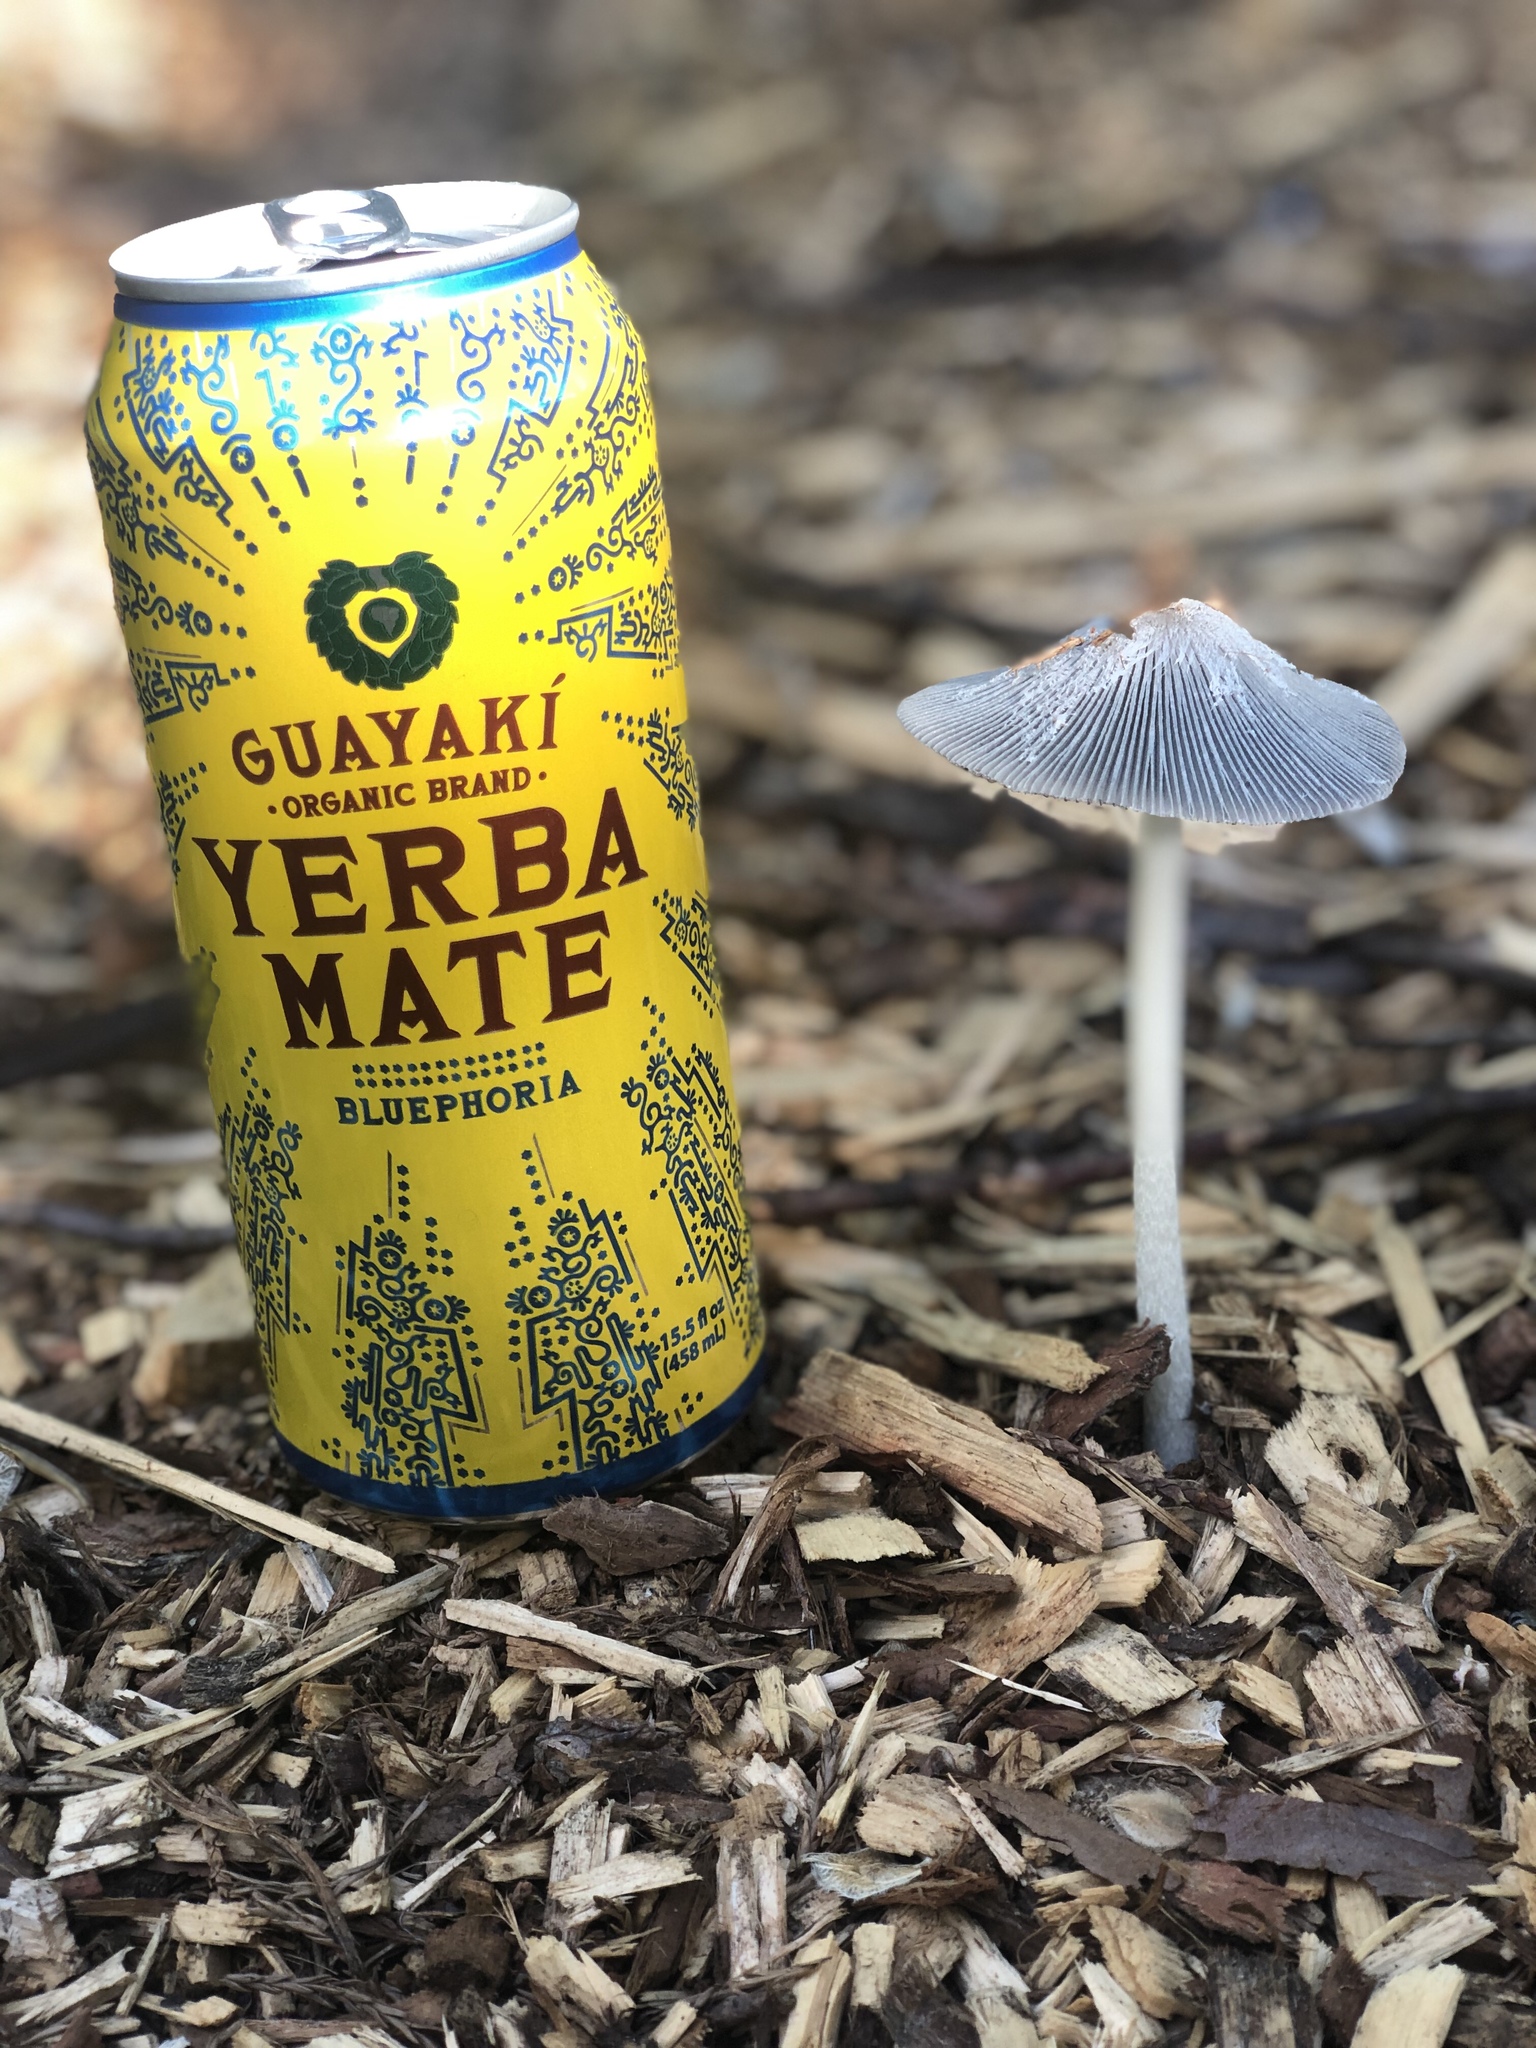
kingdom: Fungi
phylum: Basidiomycota
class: Agaricomycetes
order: Agaricales
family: Psathyrellaceae
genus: Coprinopsis
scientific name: Coprinopsis lagopus
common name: Hare'sfoot inkcap
